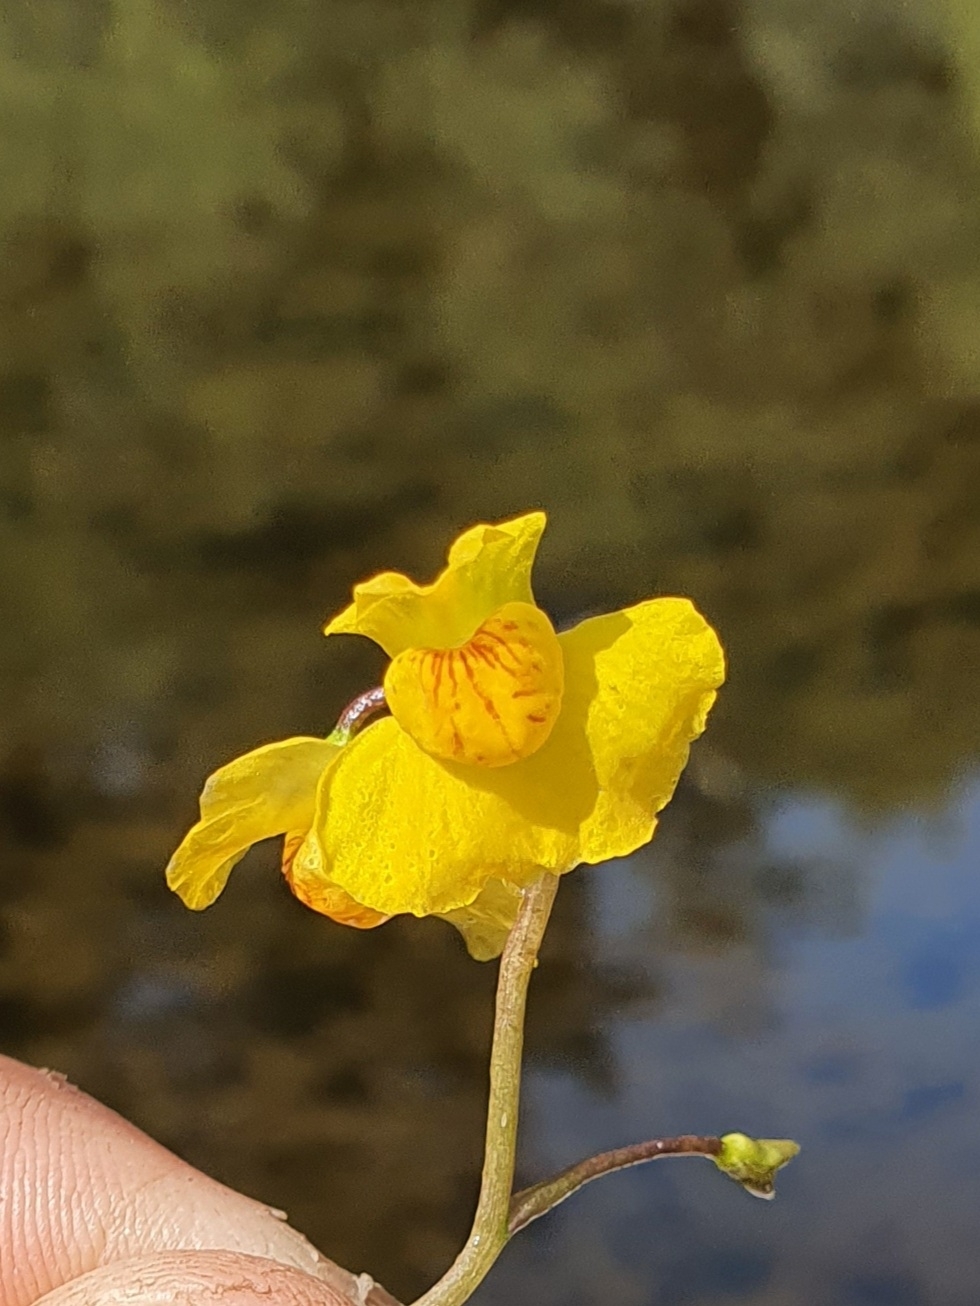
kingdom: Plantae
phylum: Tracheophyta
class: Magnoliopsida
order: Lamiales
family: Lentibulariaceae
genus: Utricularia
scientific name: Utricularia australis
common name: Bladderwort
